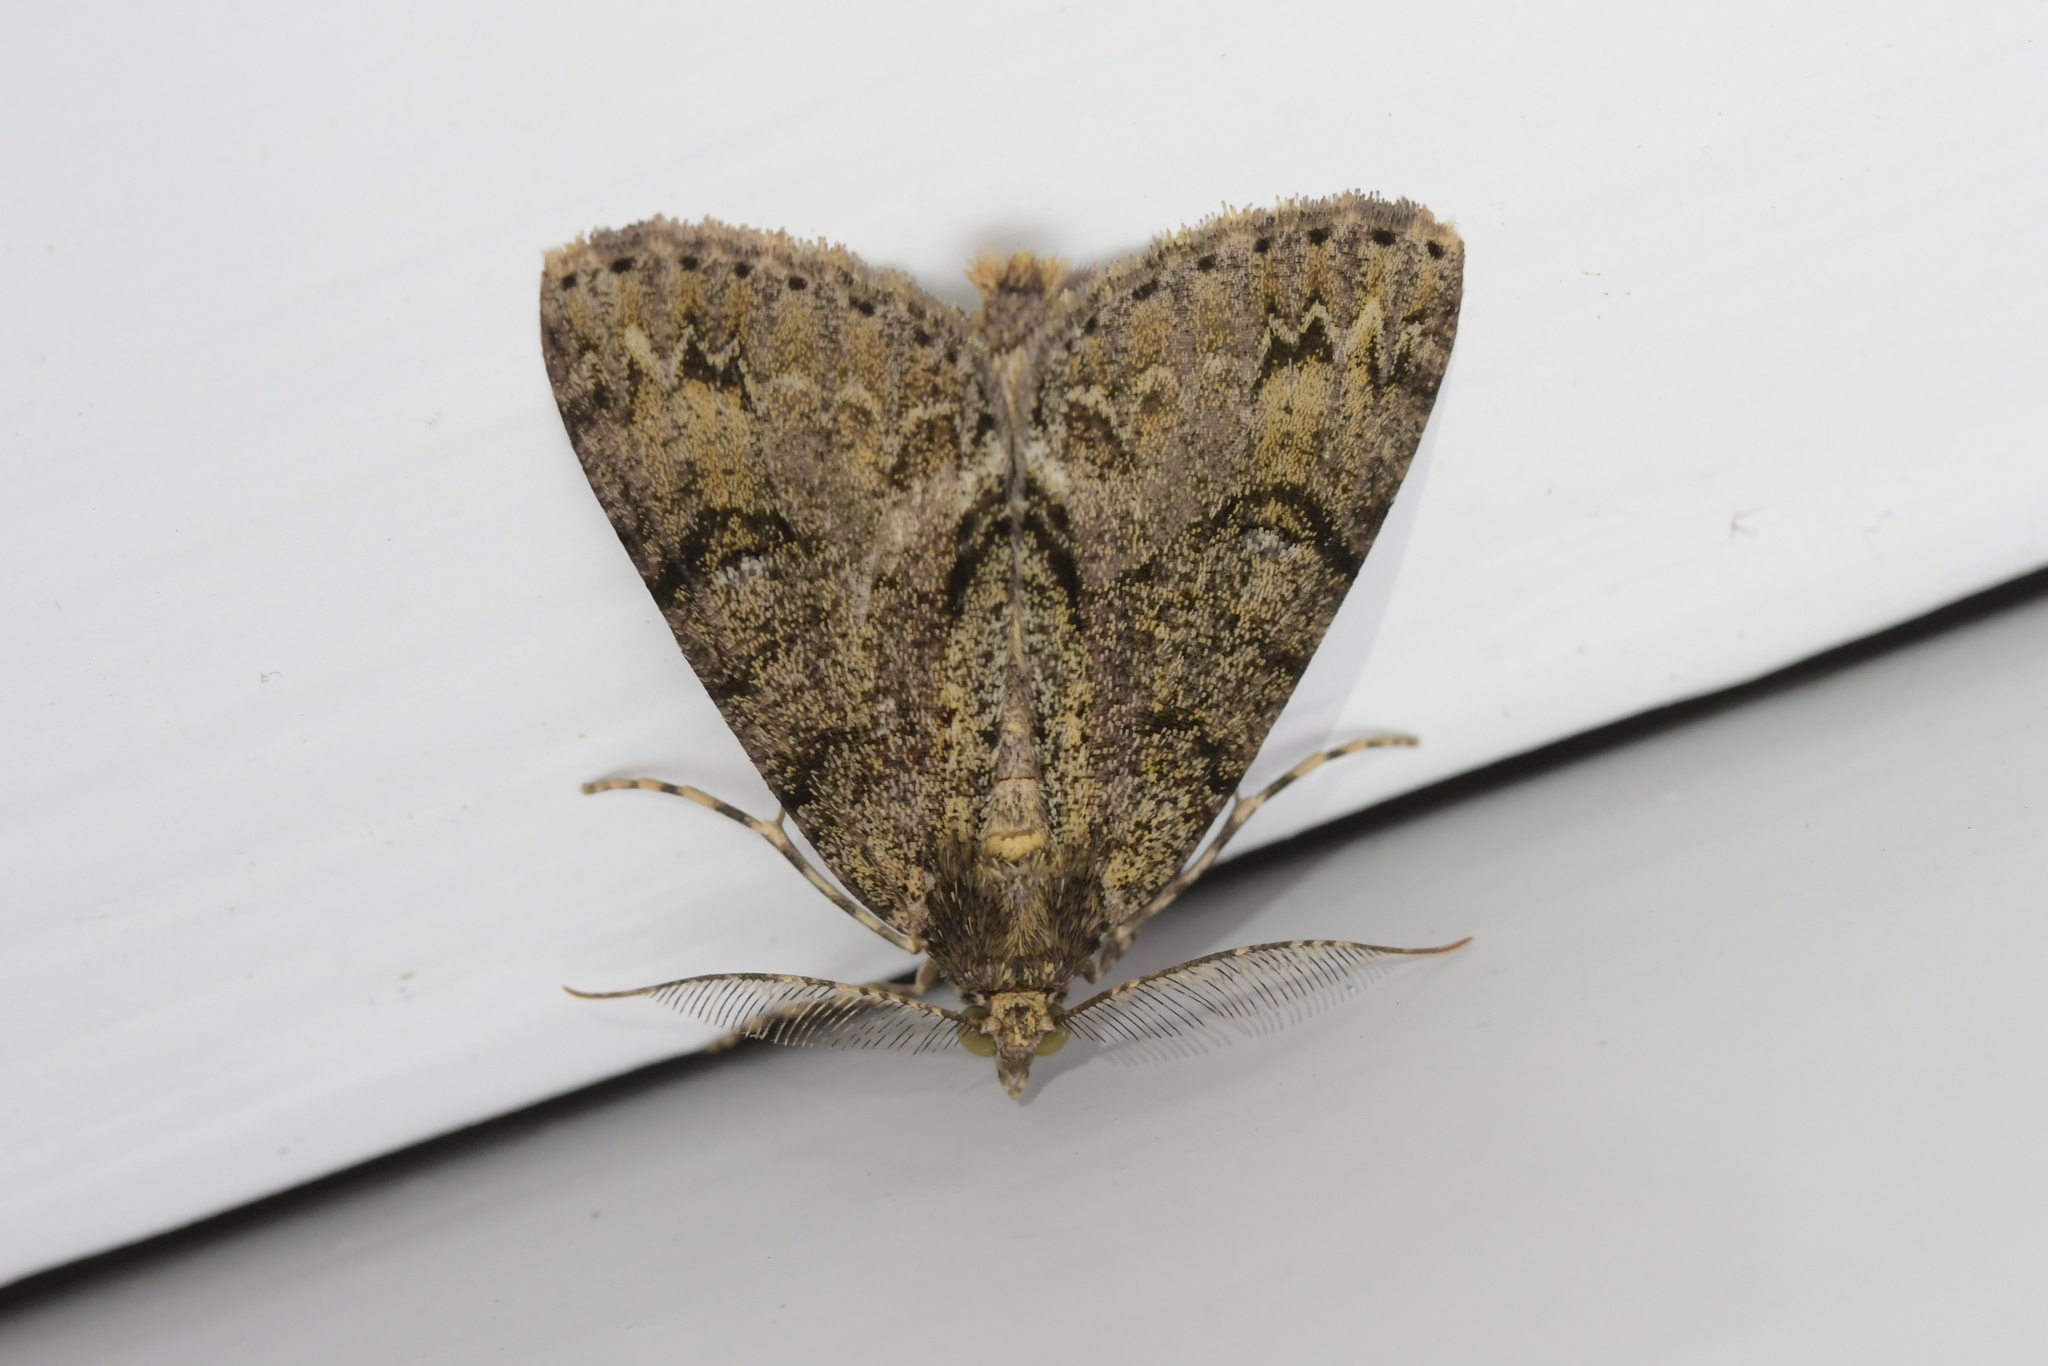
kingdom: Animalia
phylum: Arthropoda
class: Insecta
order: Lepidoptera
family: Geometridae
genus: Pseudocoremia
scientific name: Pseudocoremia suavis
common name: Common forest looper
